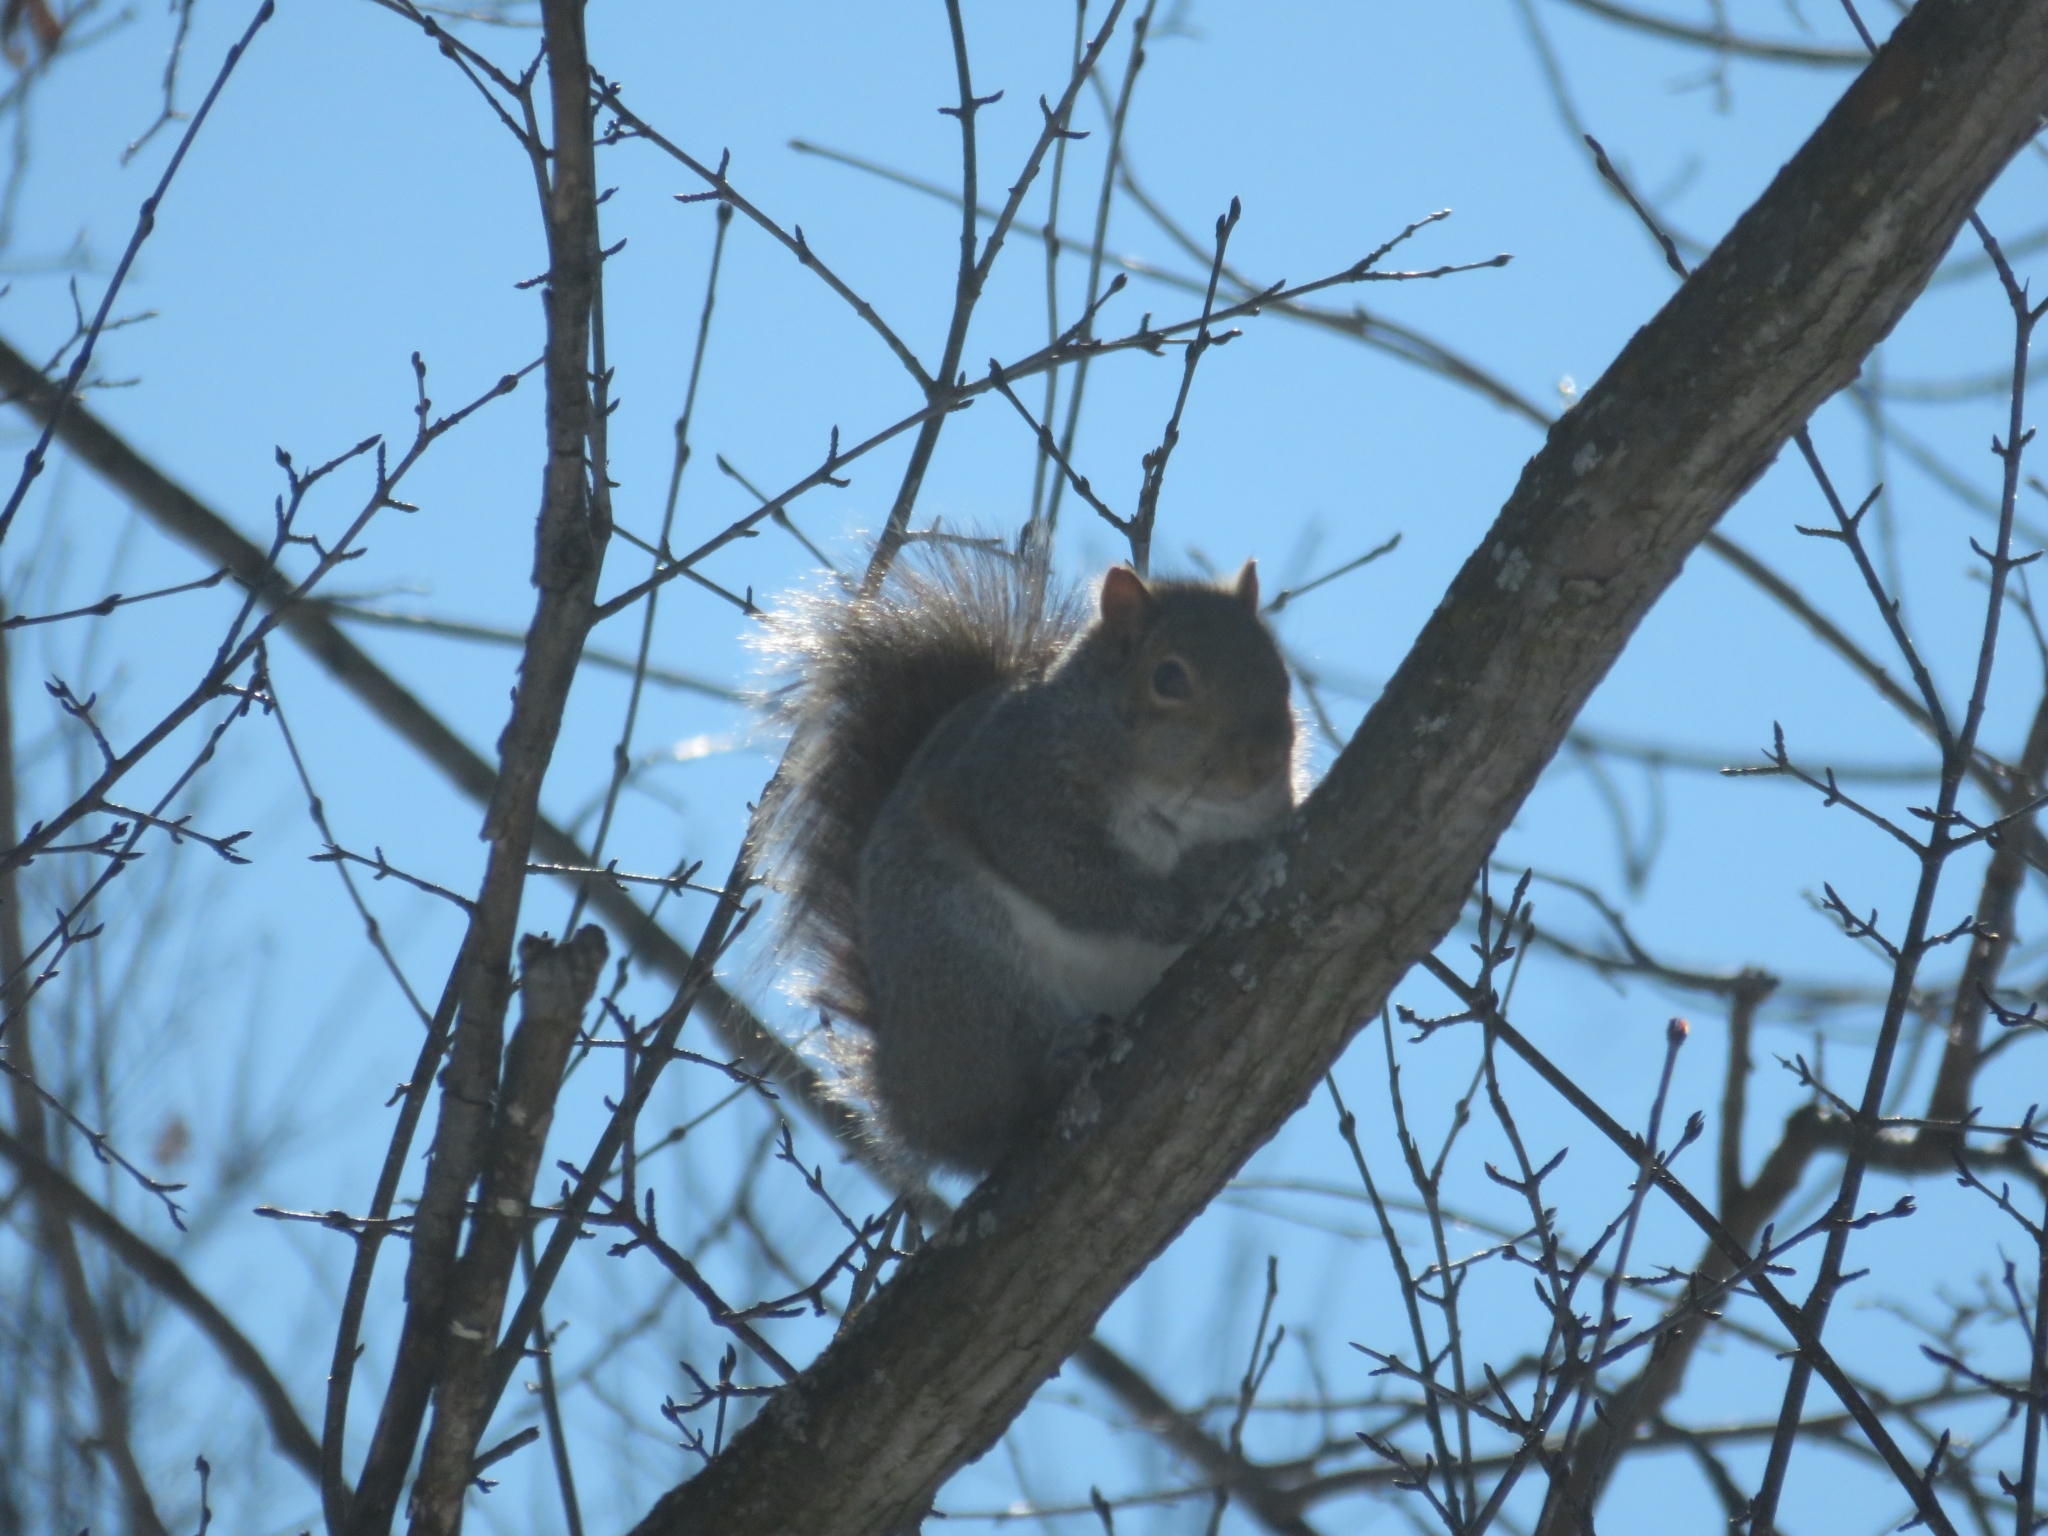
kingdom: Animalia
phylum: Chordata
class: Mammalia
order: Rodentia
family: Sciuridae
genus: Sciurus
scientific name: Sciurus carolinensis
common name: Eastern gray squirrel
